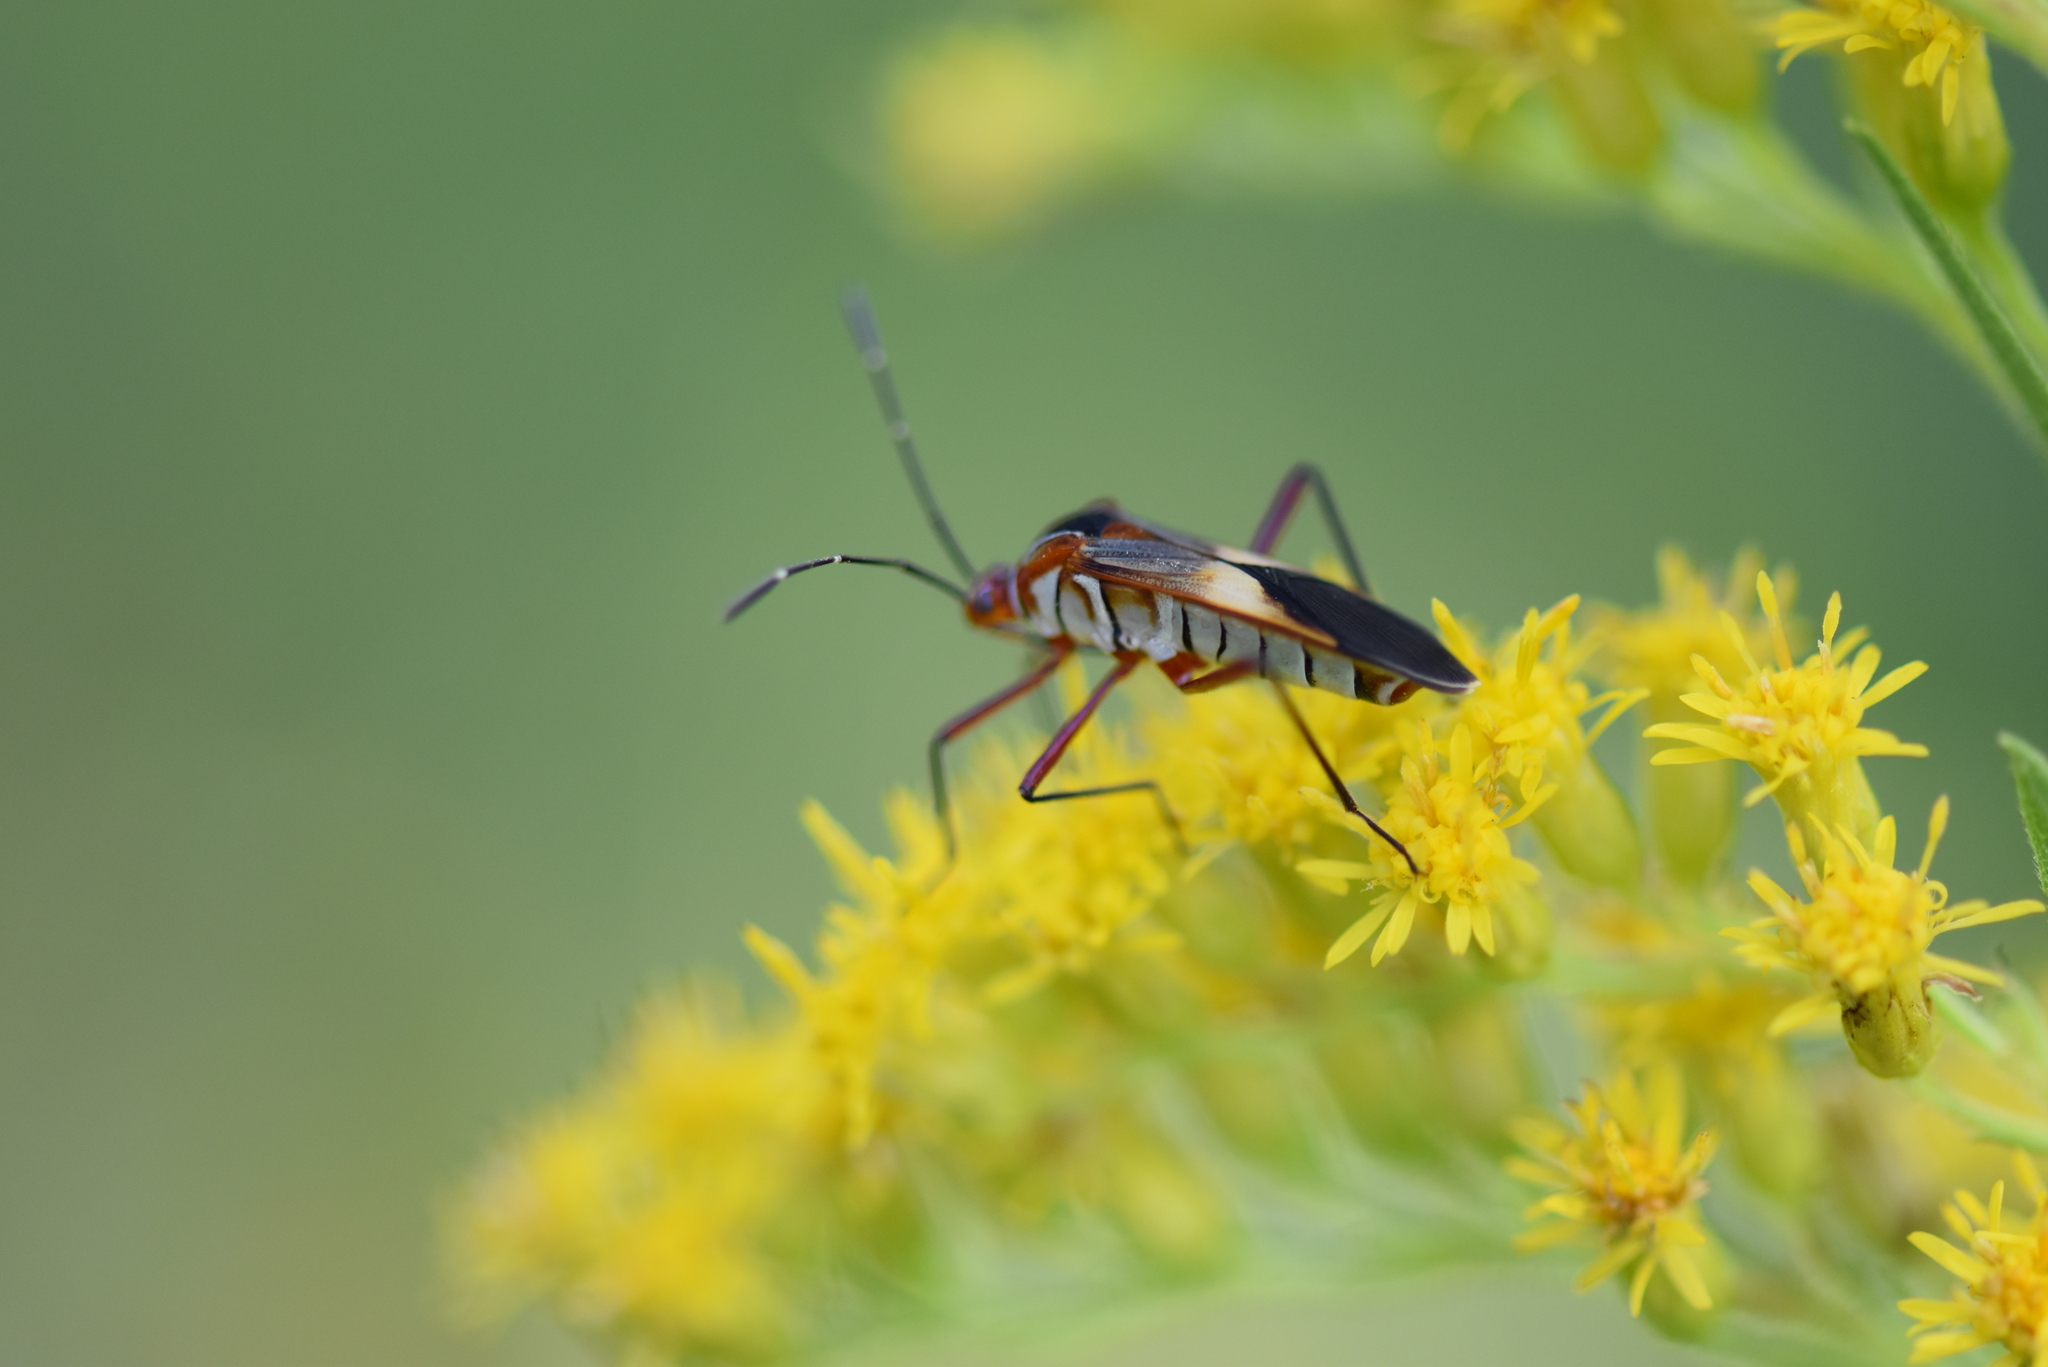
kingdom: Animalia
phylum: Arthropoda
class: Insecta
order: Hemiptera
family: Coreidae
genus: Hypselonotus
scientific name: Hypselonotus interruptus
